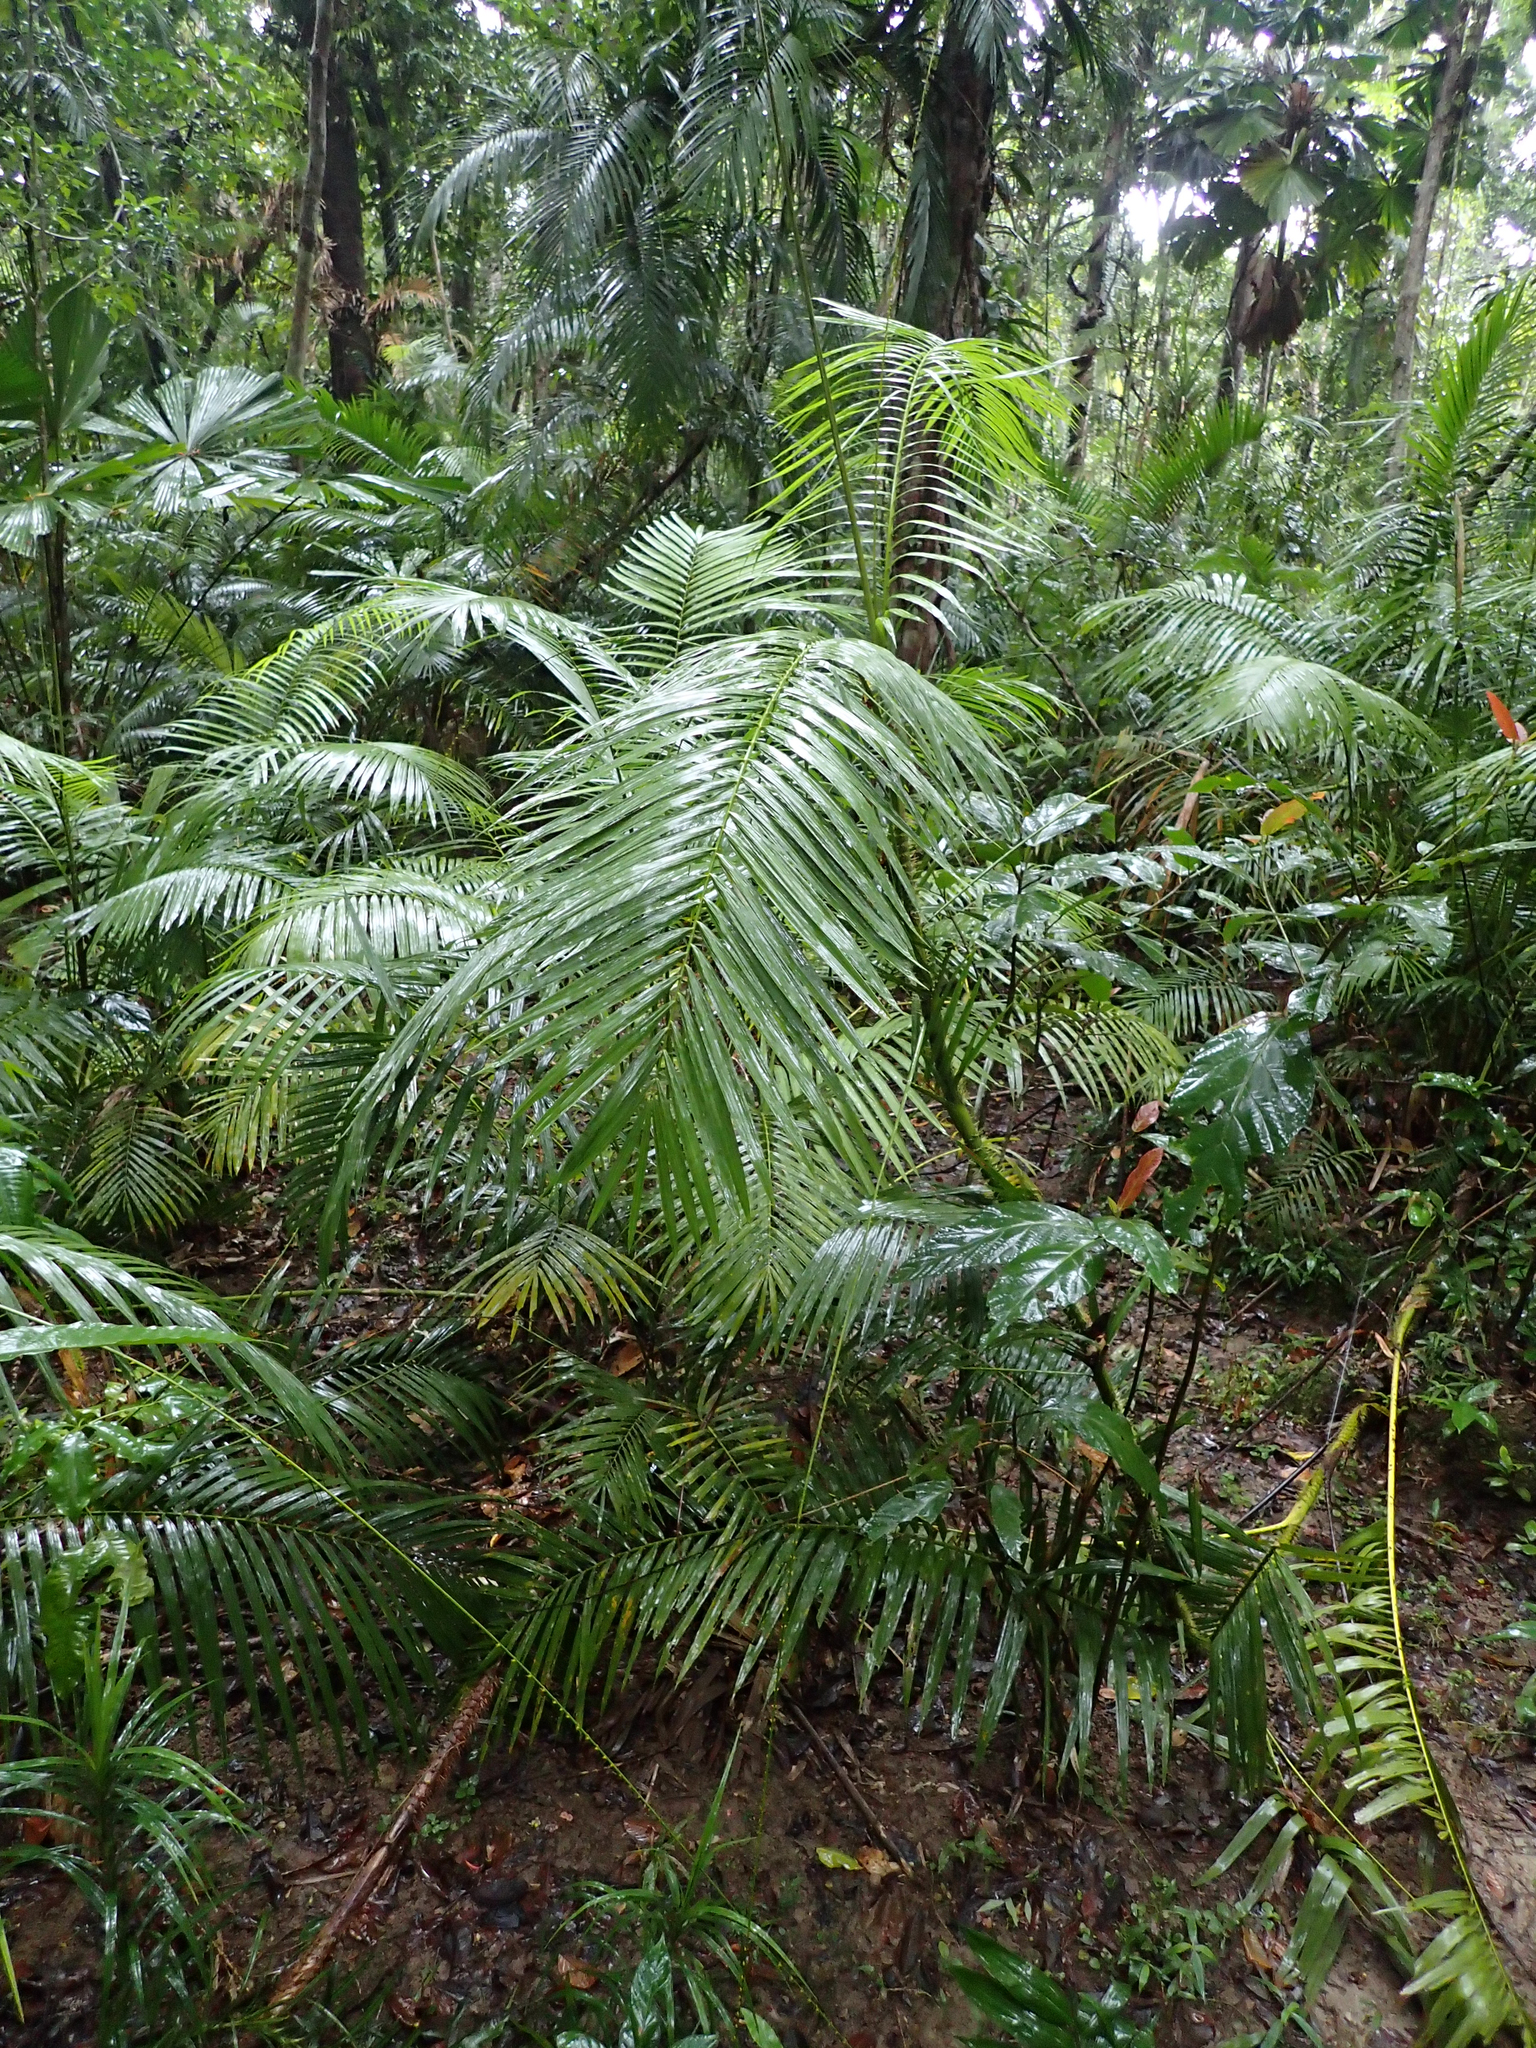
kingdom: Plantae
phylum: Tracheophyta
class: Liliopsida
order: Arecales
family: Arecaceae
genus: Calamus
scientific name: Calamus moti
